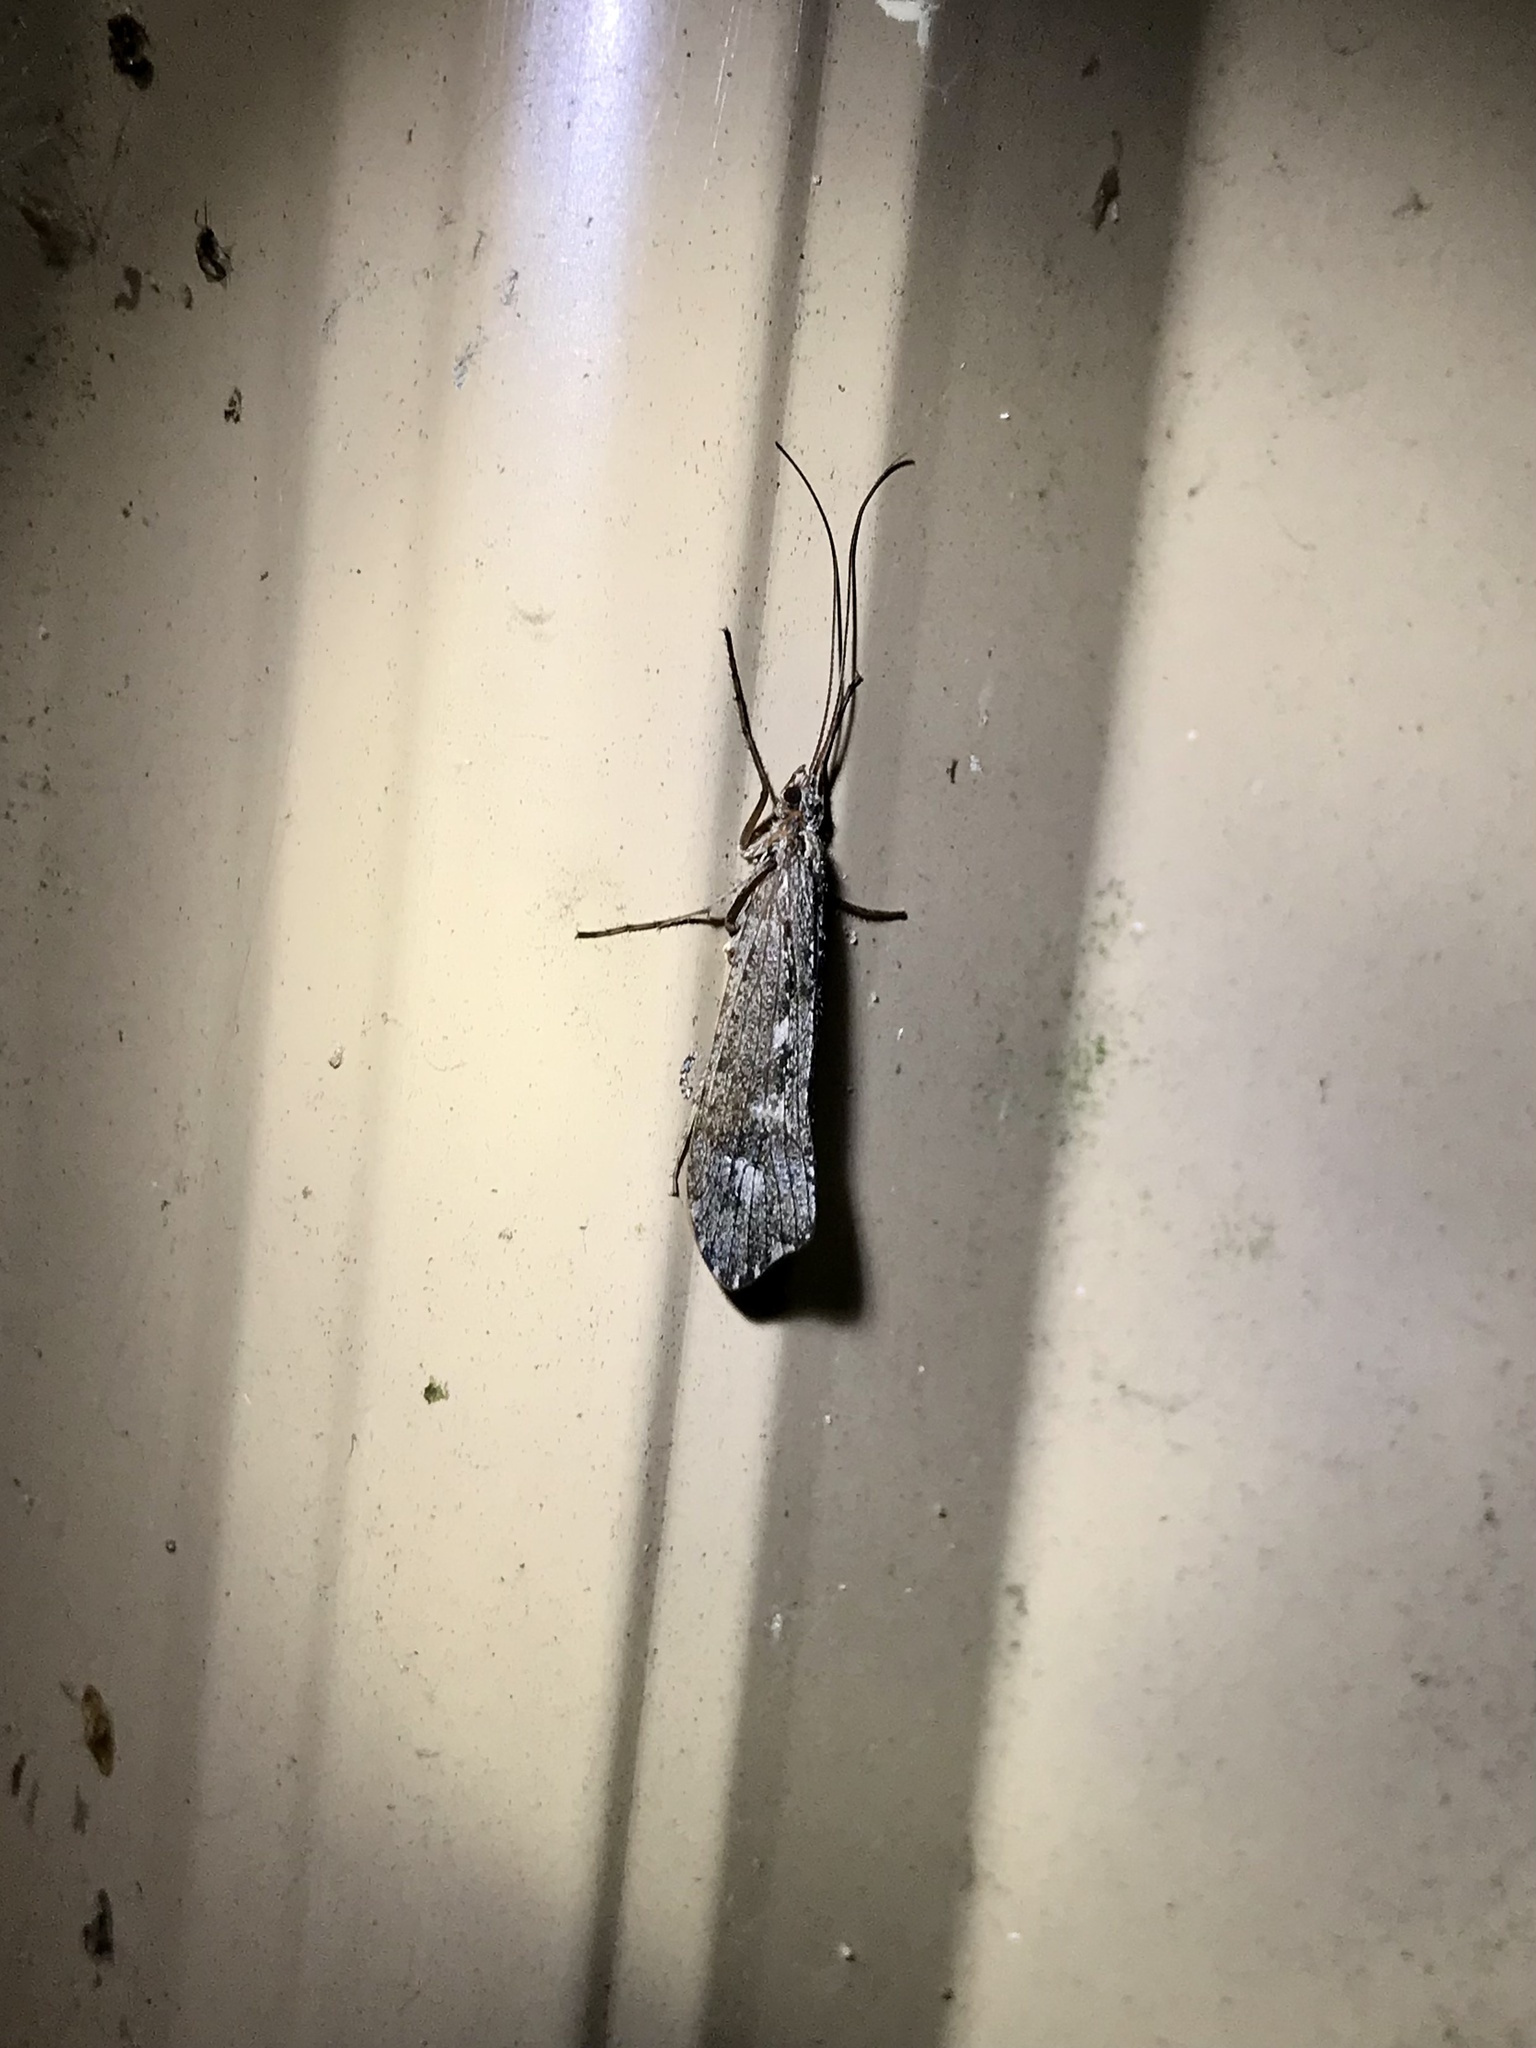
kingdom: Animalia
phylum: Arthropoda
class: Insecta
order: Trichoptera
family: Limnephilidae
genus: Glyphopsyche
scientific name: Glyphopsyche irrorata
